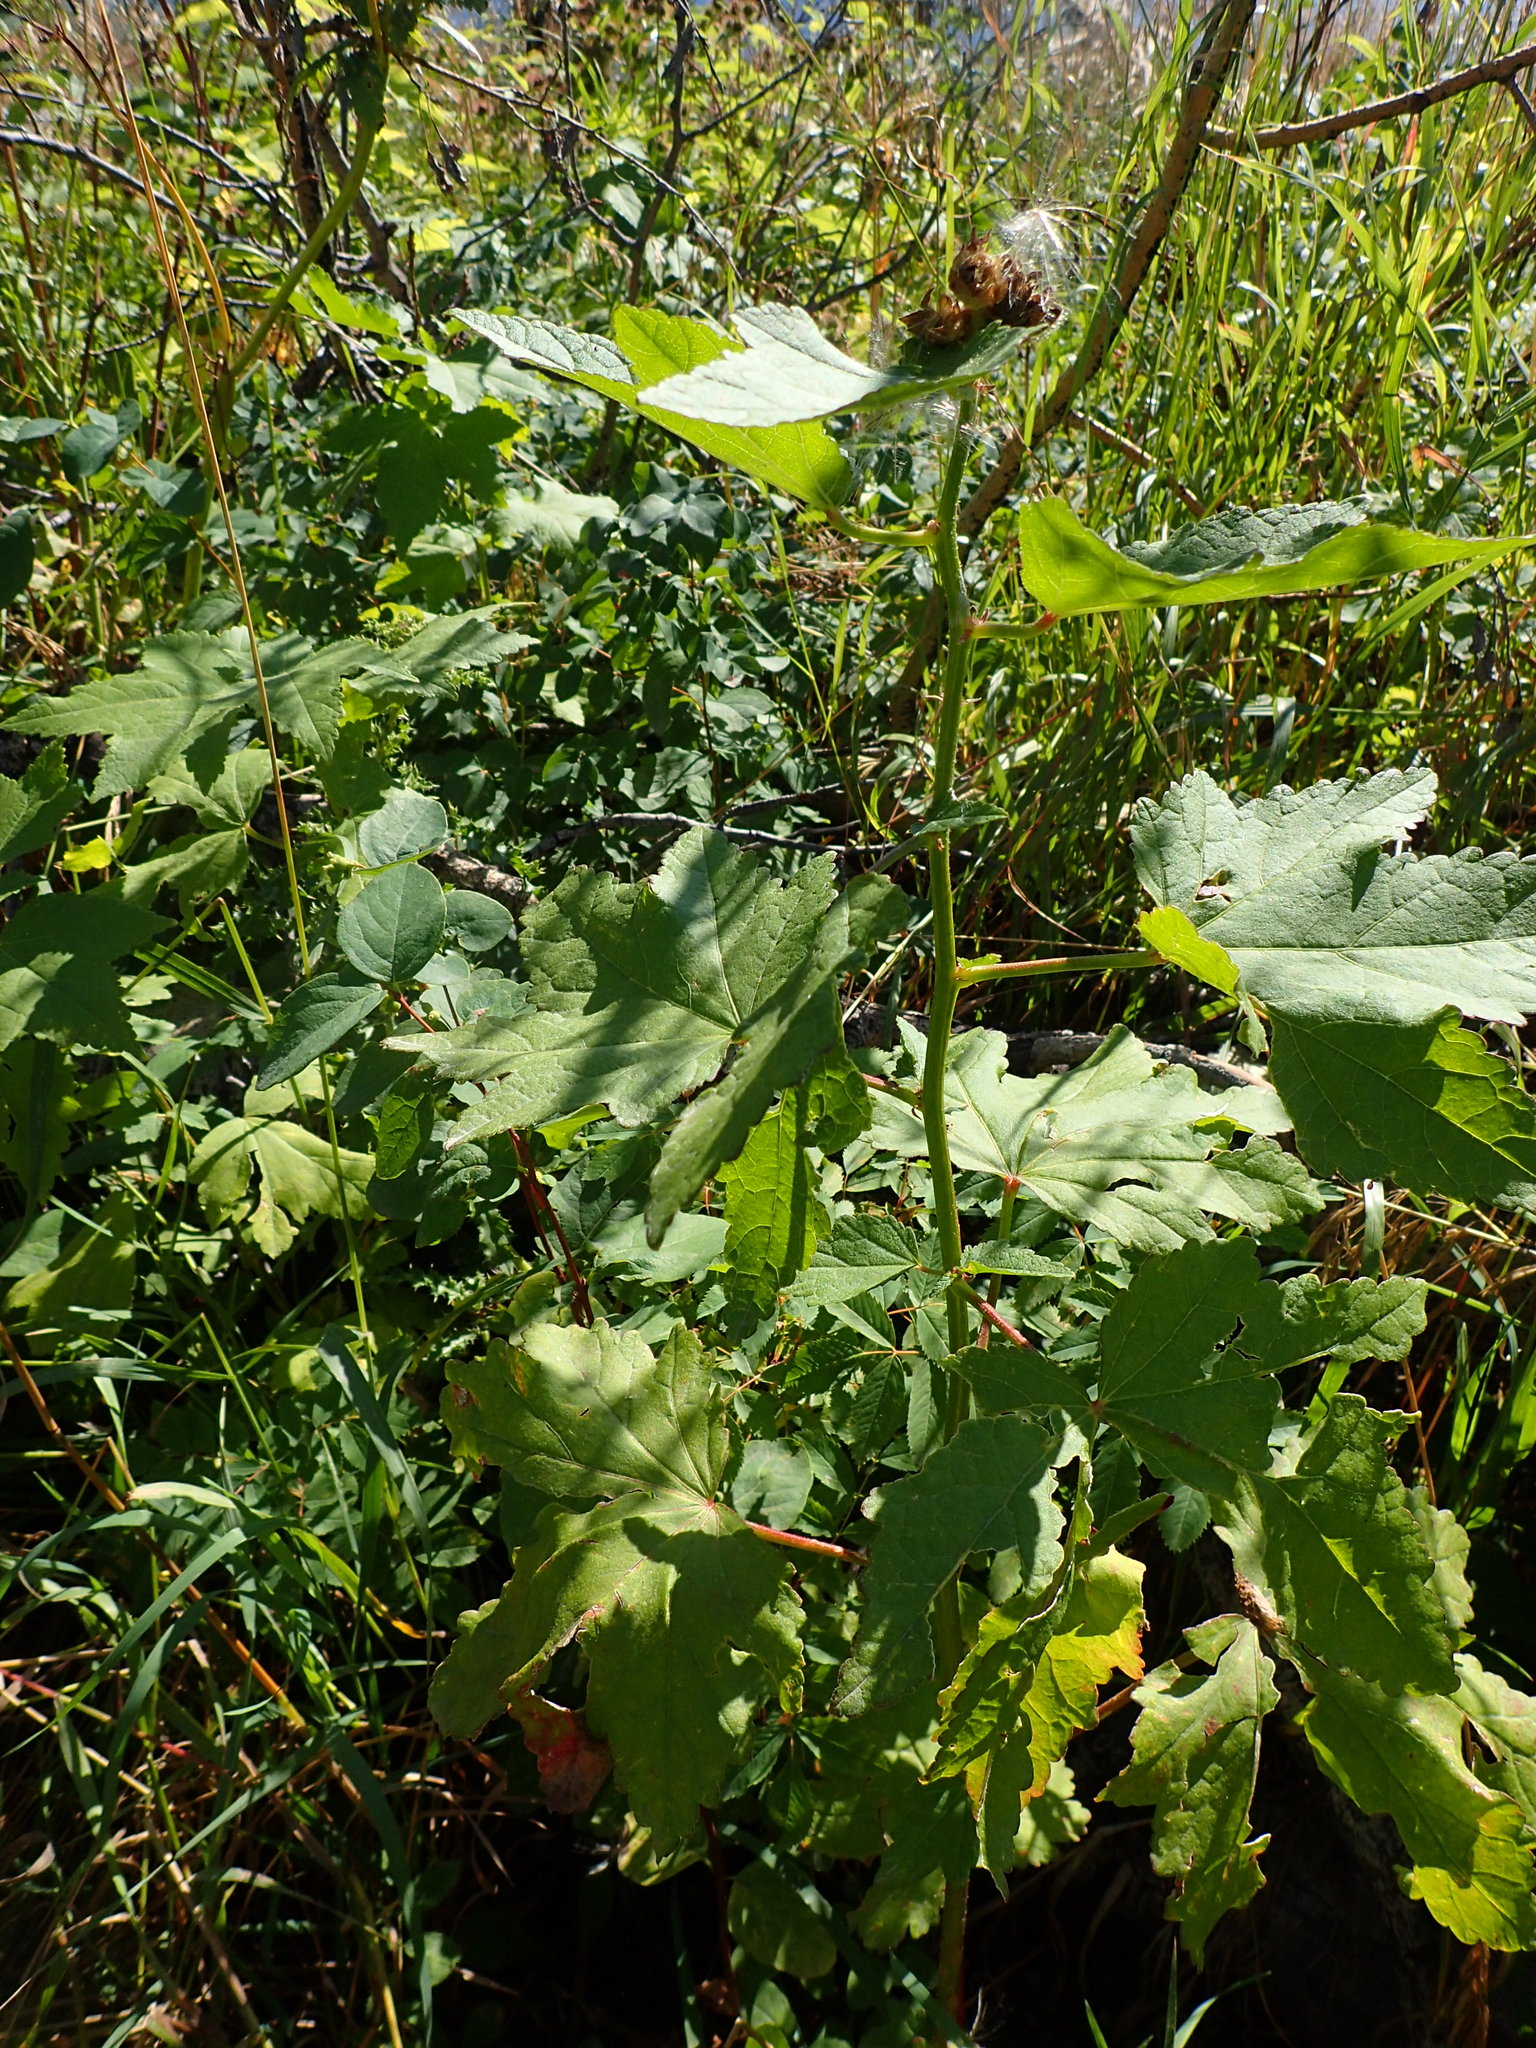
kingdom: Plantae
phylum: Tracheophyta
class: Magnoliopsida
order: Malvales
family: Malvaceae
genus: Iliamna
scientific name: Iliamna rivularis
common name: Wild hollyhock
